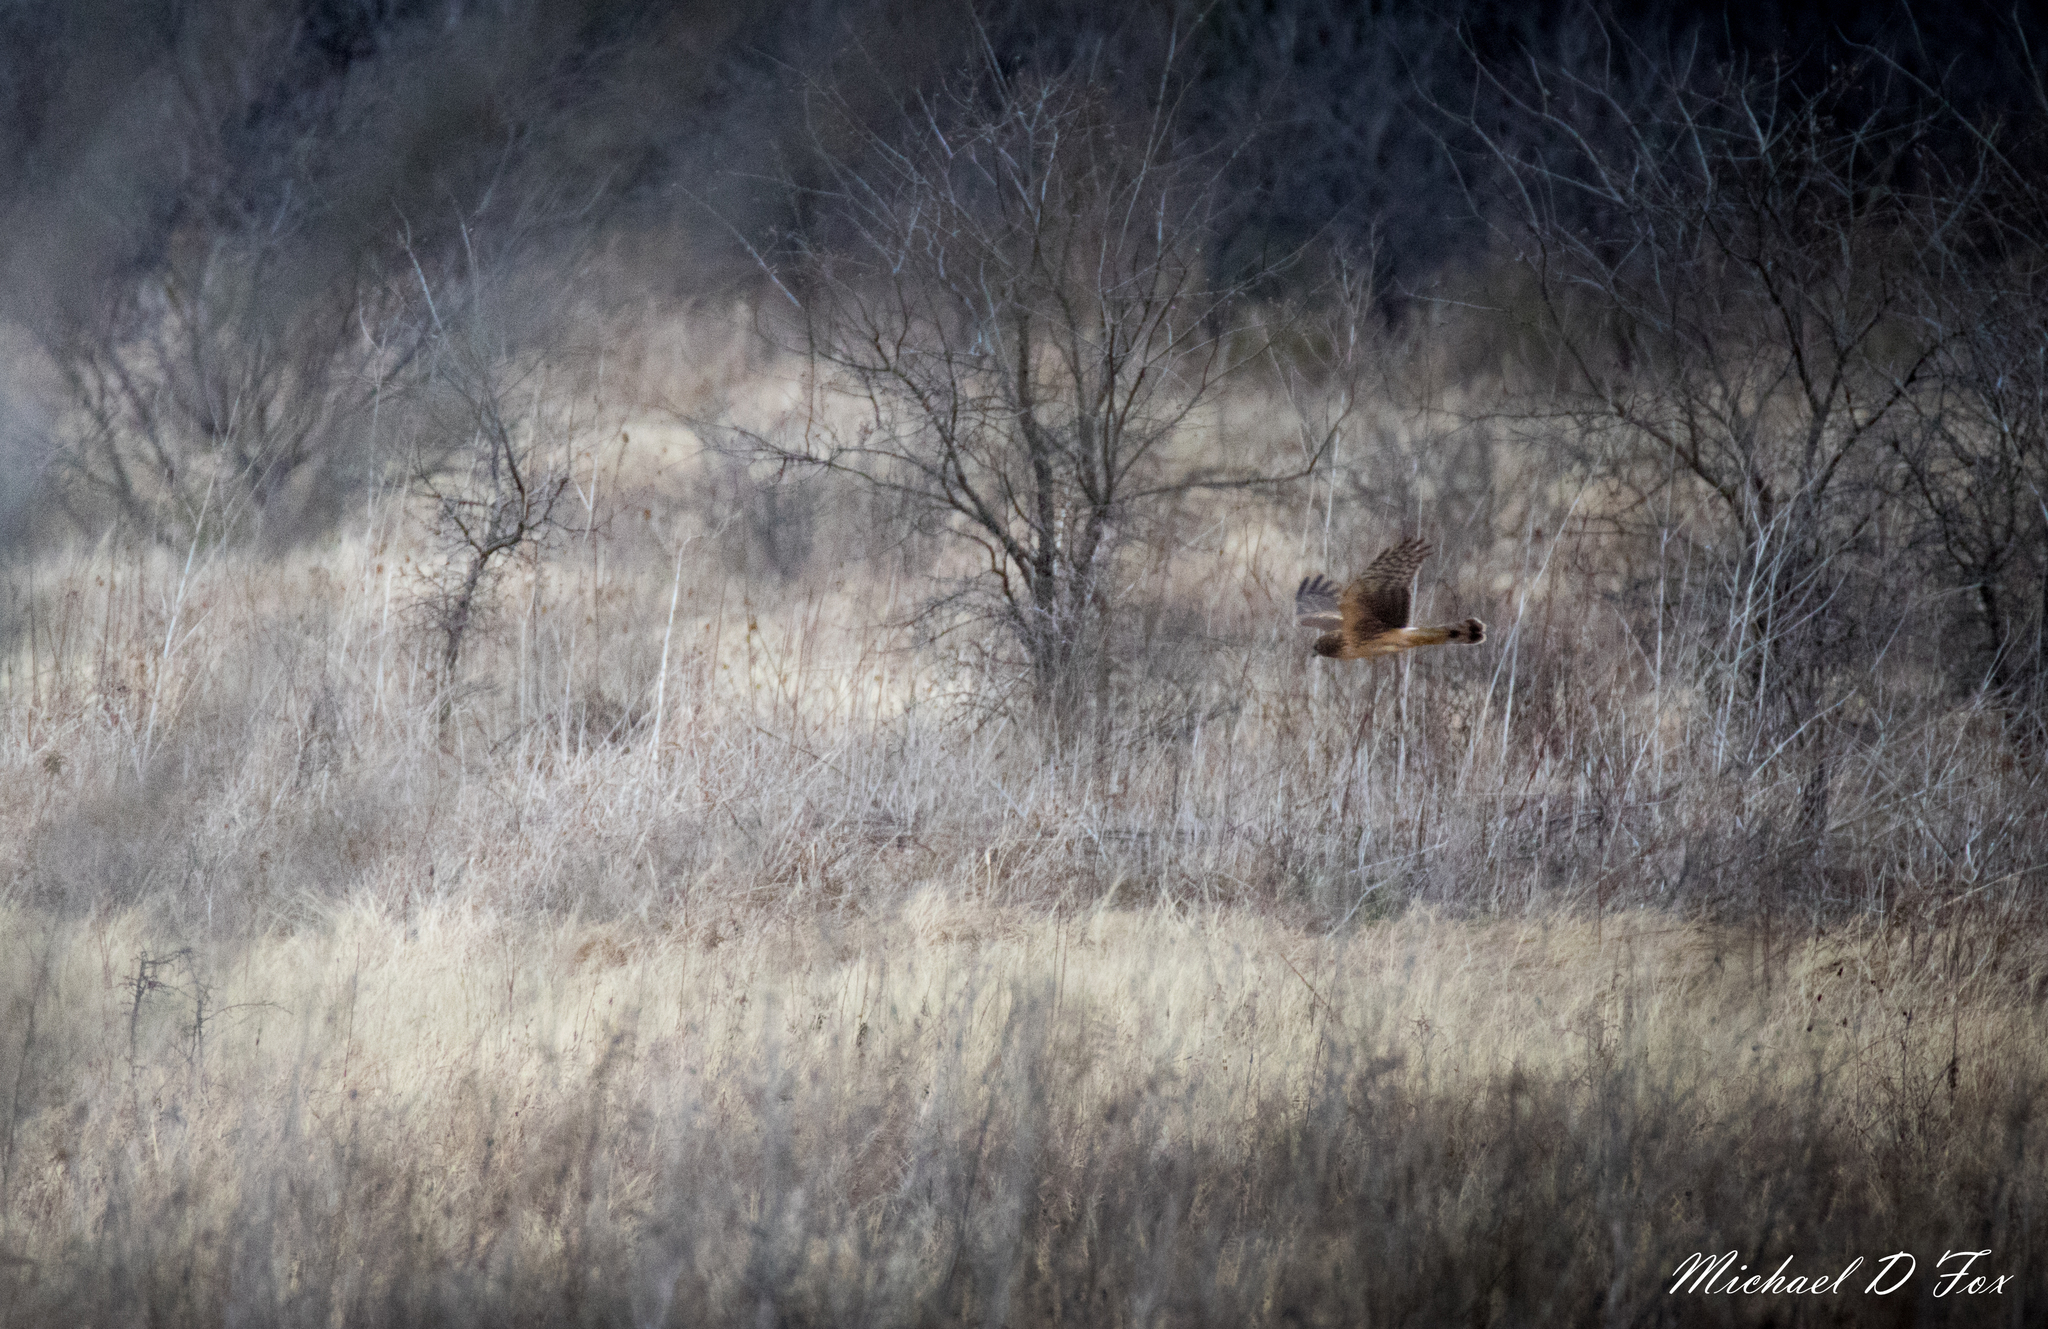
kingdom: Animalia
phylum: Chordata
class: Aves
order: Accipitriformes
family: Accipitridae
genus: Circus
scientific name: Circus cyaneus
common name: Hen harrier
